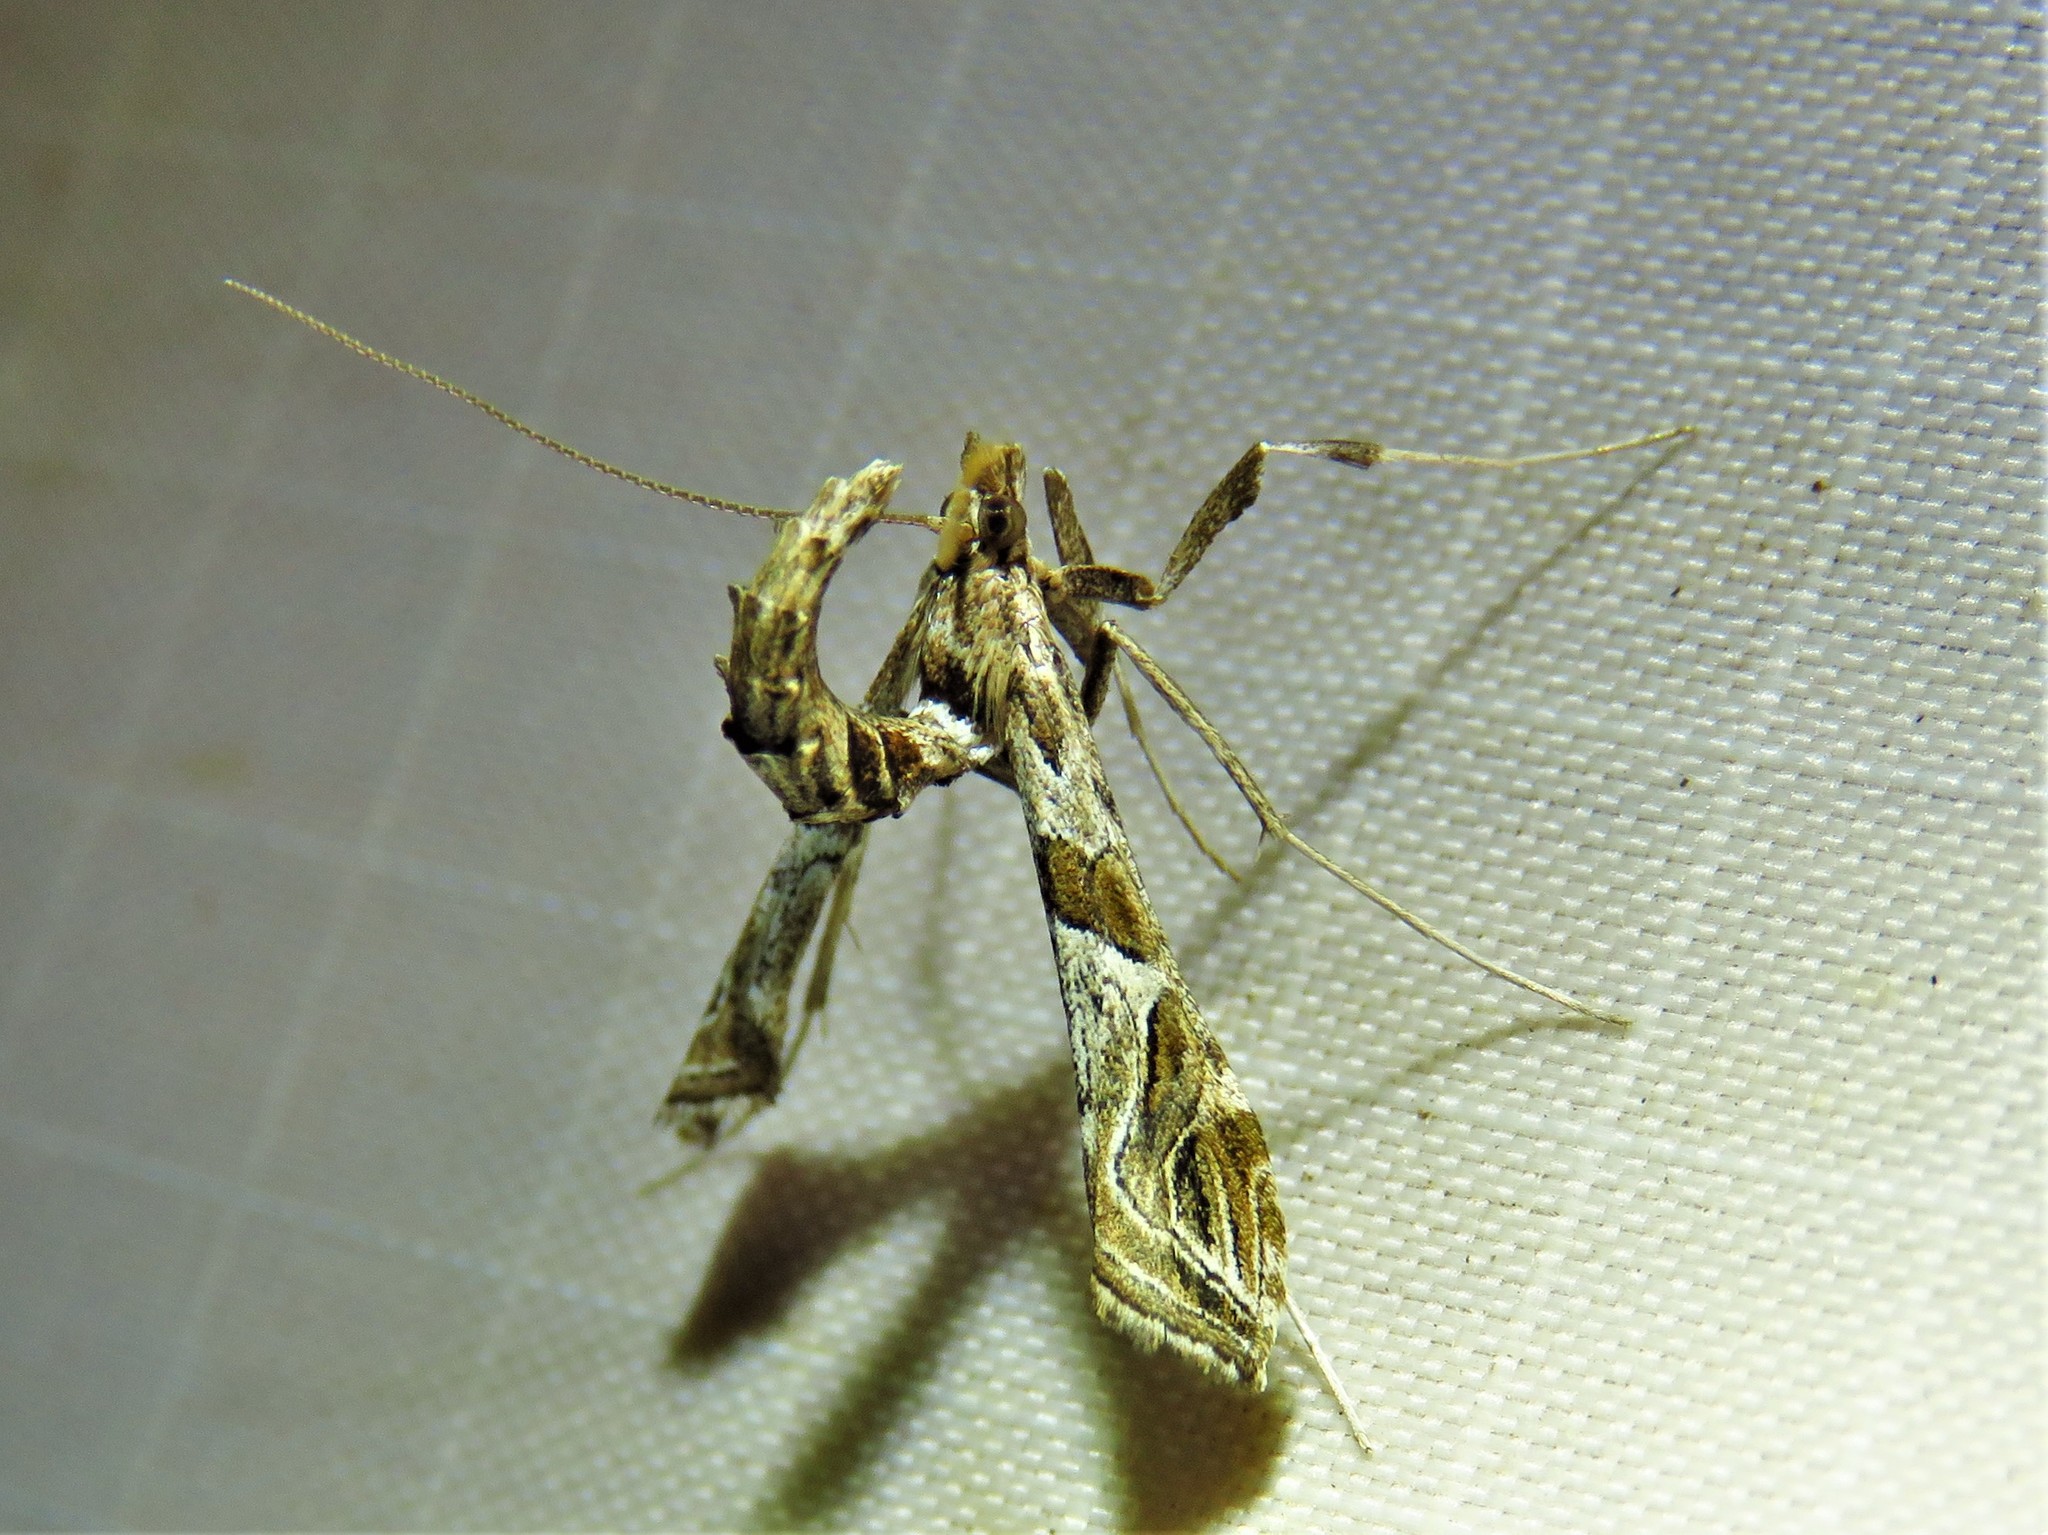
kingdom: Animalia
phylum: Arthropoda
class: Insecta
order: Lepidoptera
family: Crambidae
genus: Lineodes
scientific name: Lineodes interrupta
